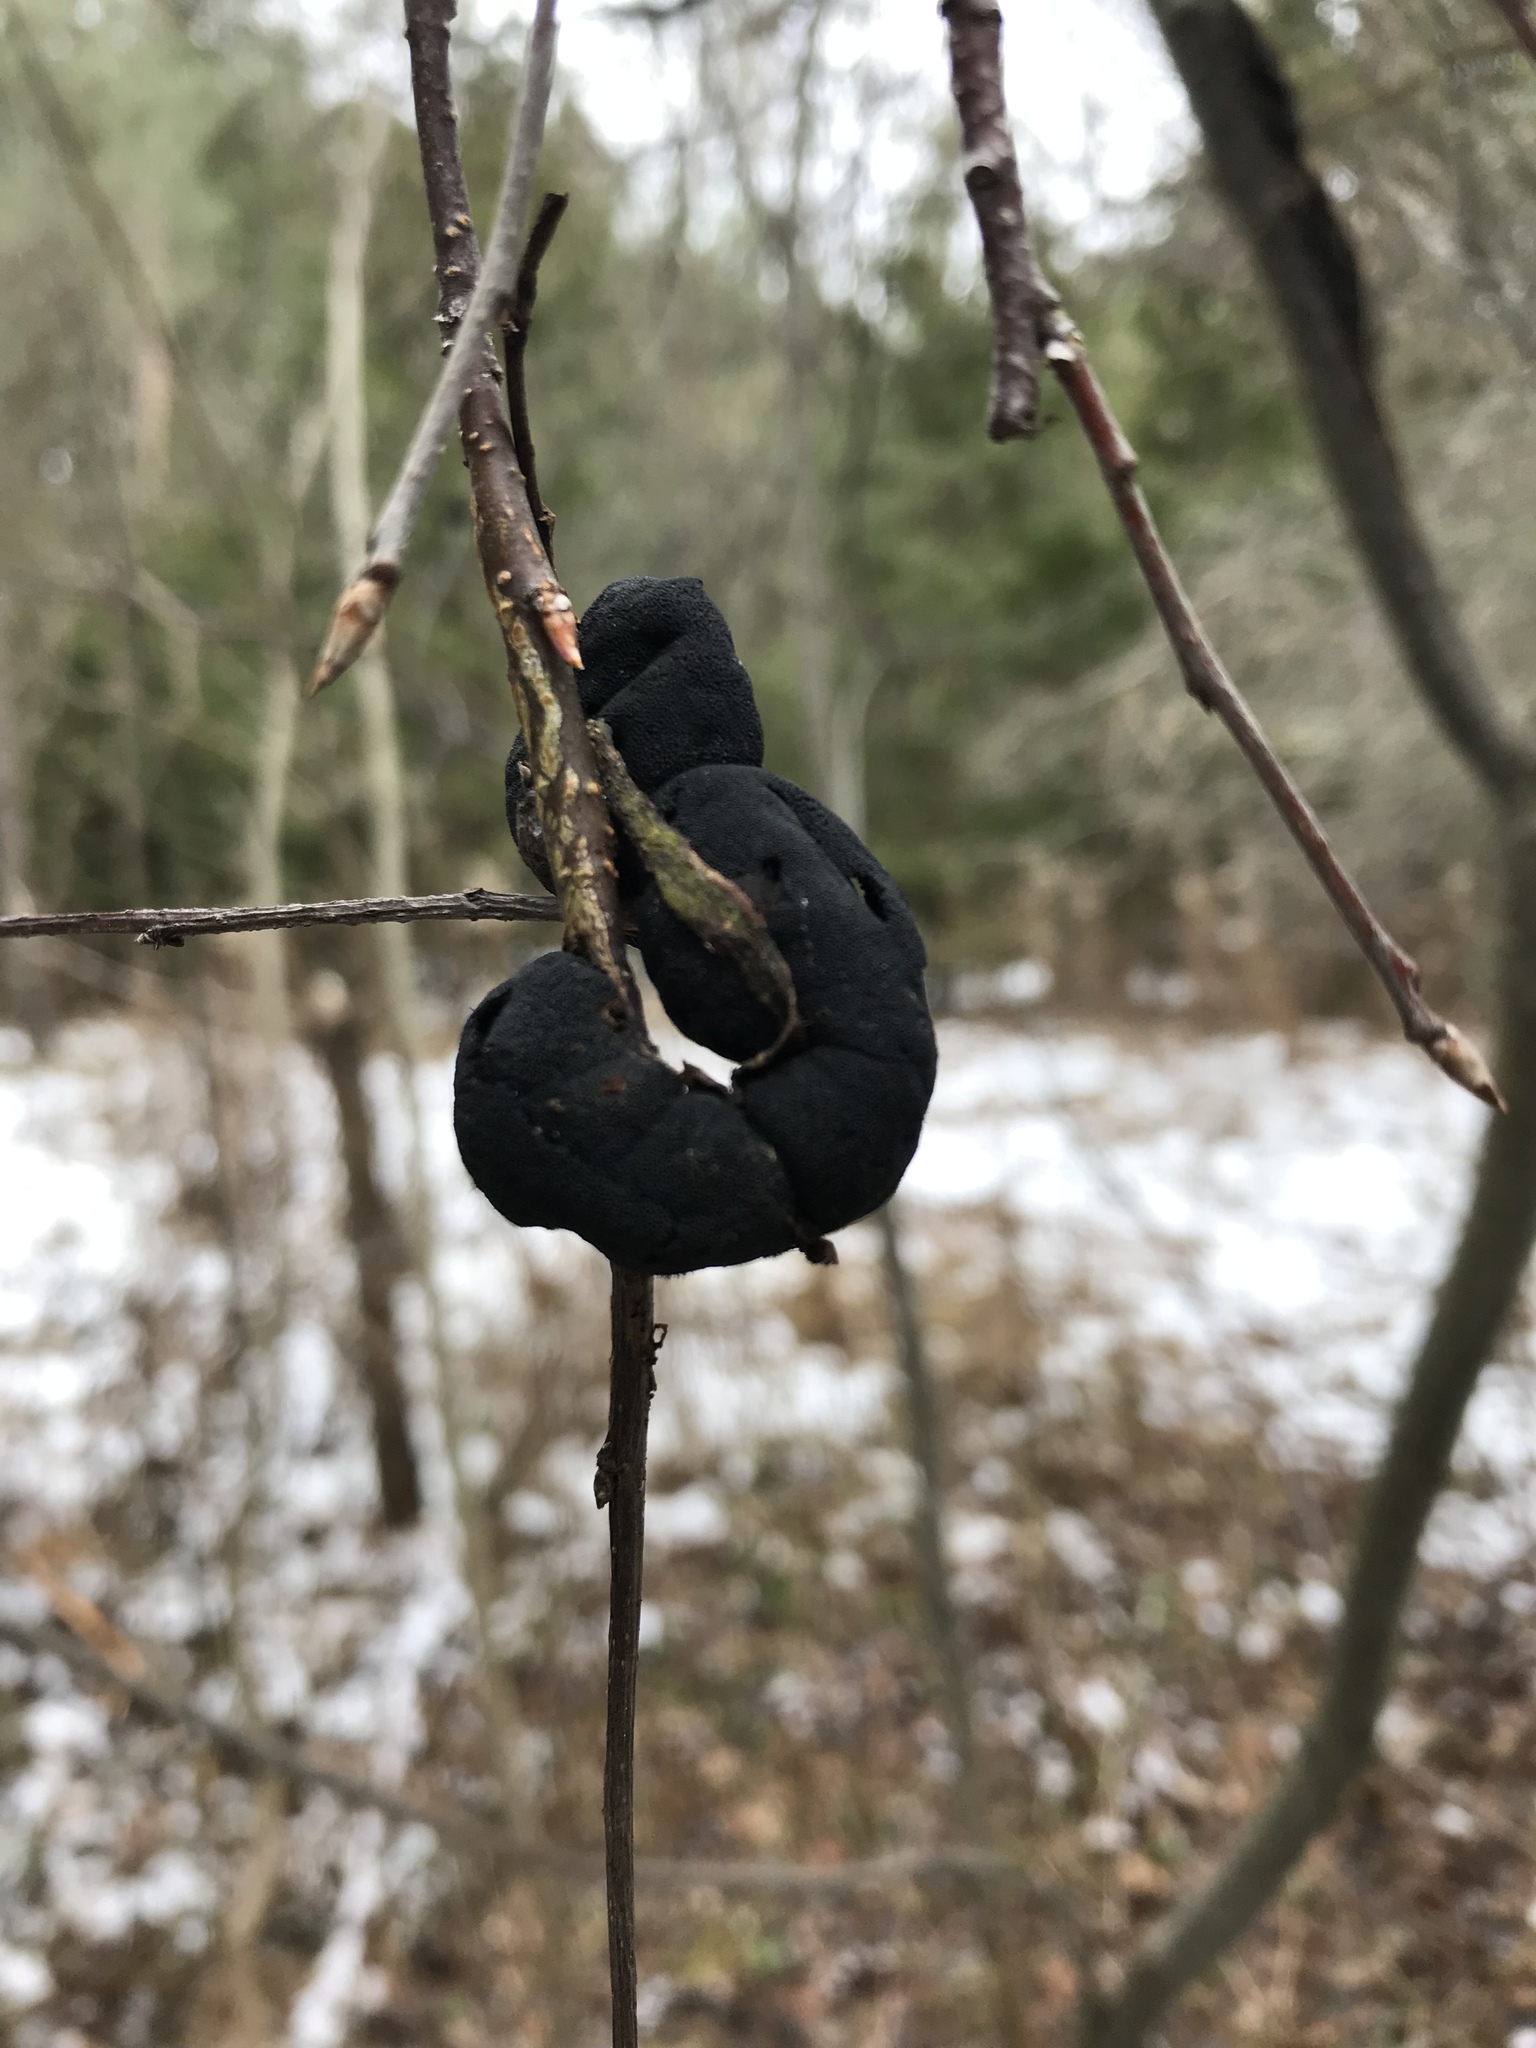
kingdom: Fungi
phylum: Ascomycota
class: Dothideomycetes
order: Venturiales
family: Venturiaceae
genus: Apiosporina
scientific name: Apiosporina morbosa
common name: Black knot
